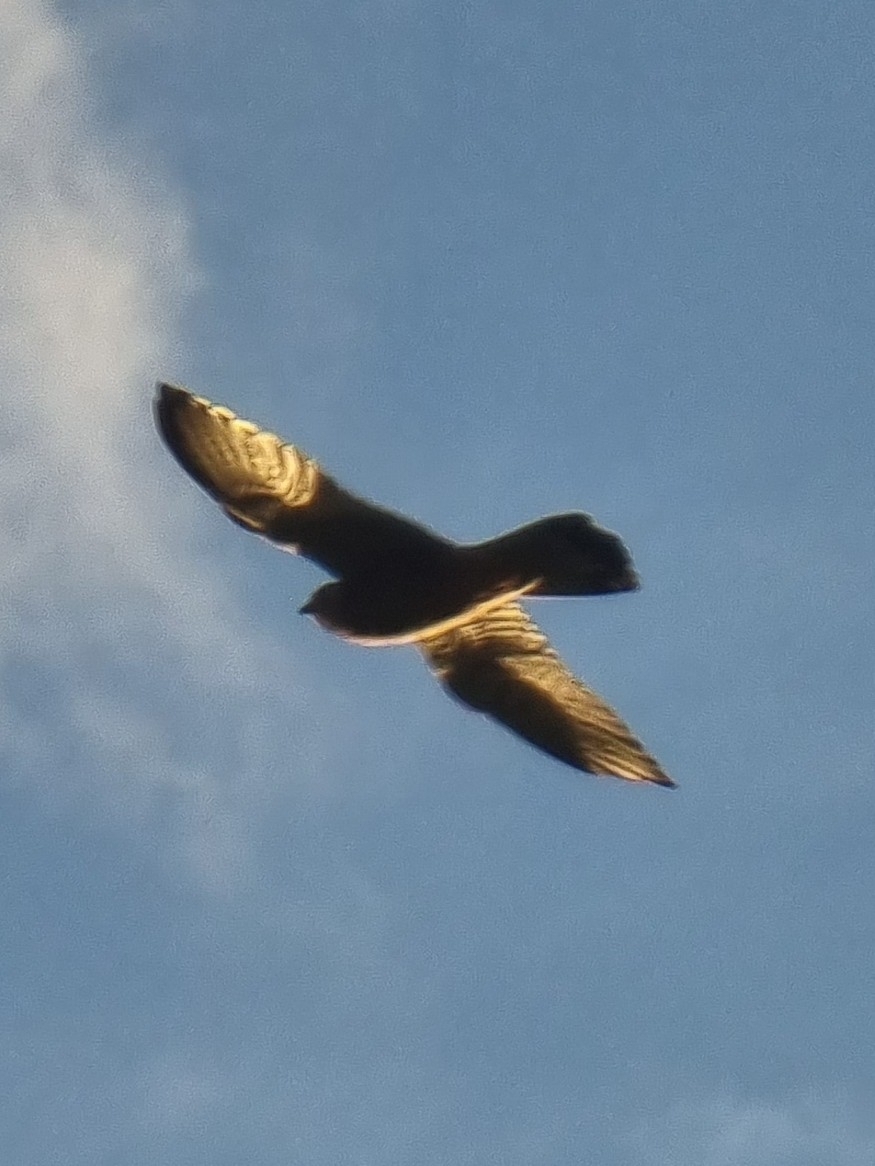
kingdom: Animalia
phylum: Chordata
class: Aves
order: Falconiformes
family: Falconidae
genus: Falco
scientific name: Falco tinnunculus
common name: Common kestrel
